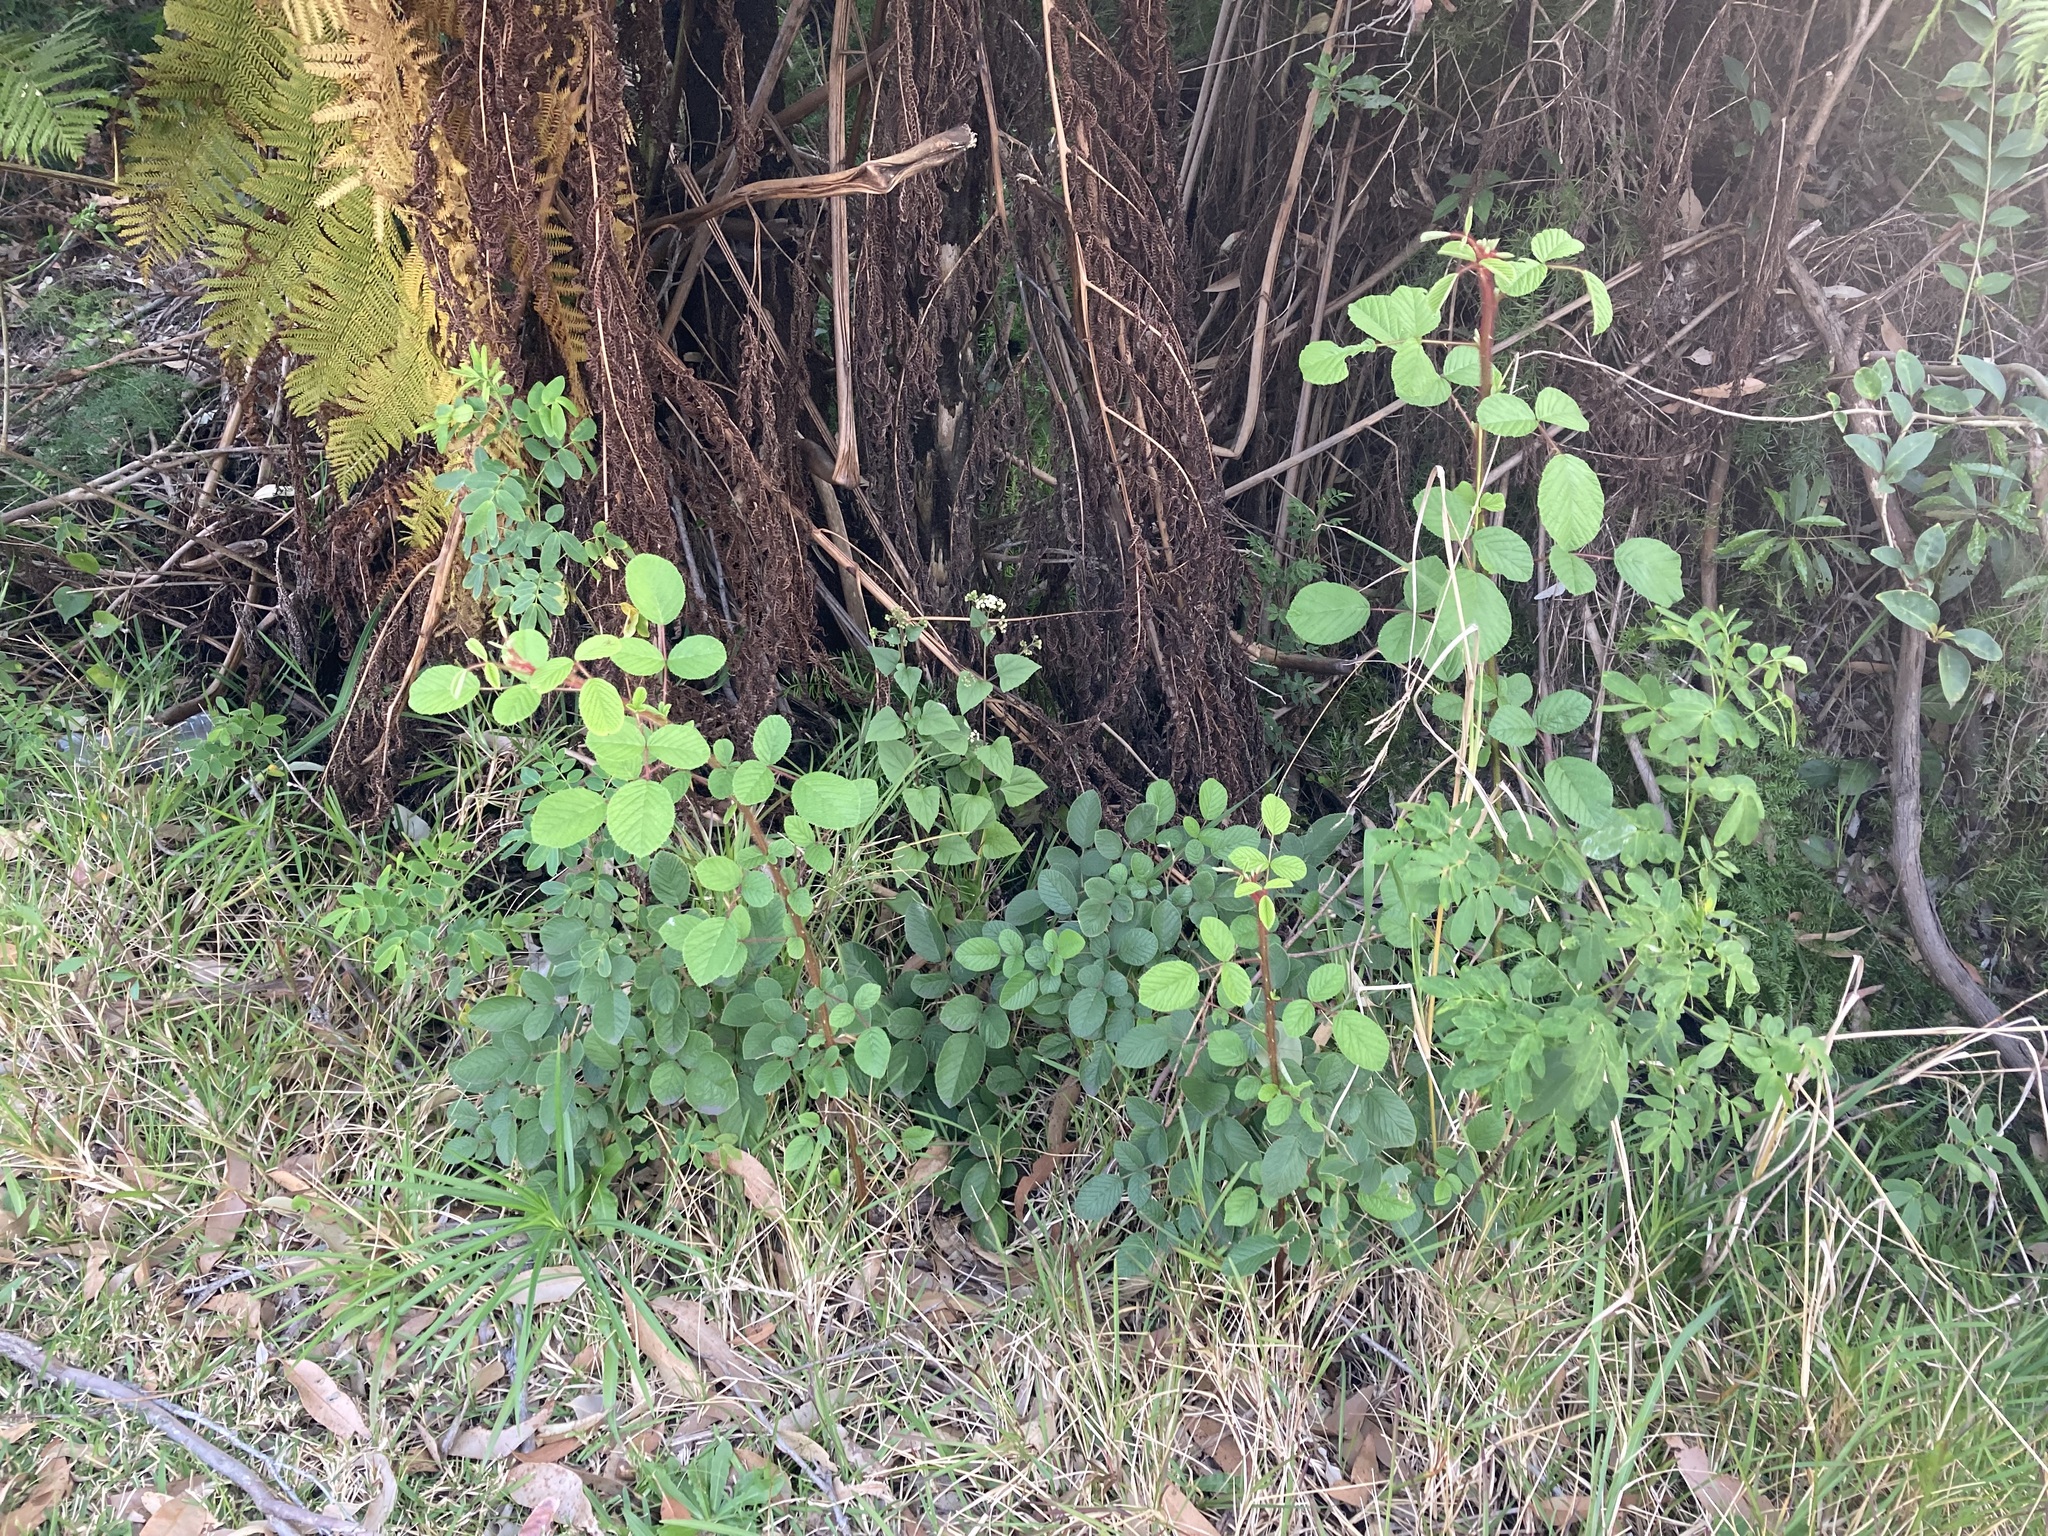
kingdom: Plantae
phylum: Tracheophyta
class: Magnoliopsida
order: Rosales
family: Rosaceae
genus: Rubus
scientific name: Rubus ellipticus
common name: Cheeseberry
